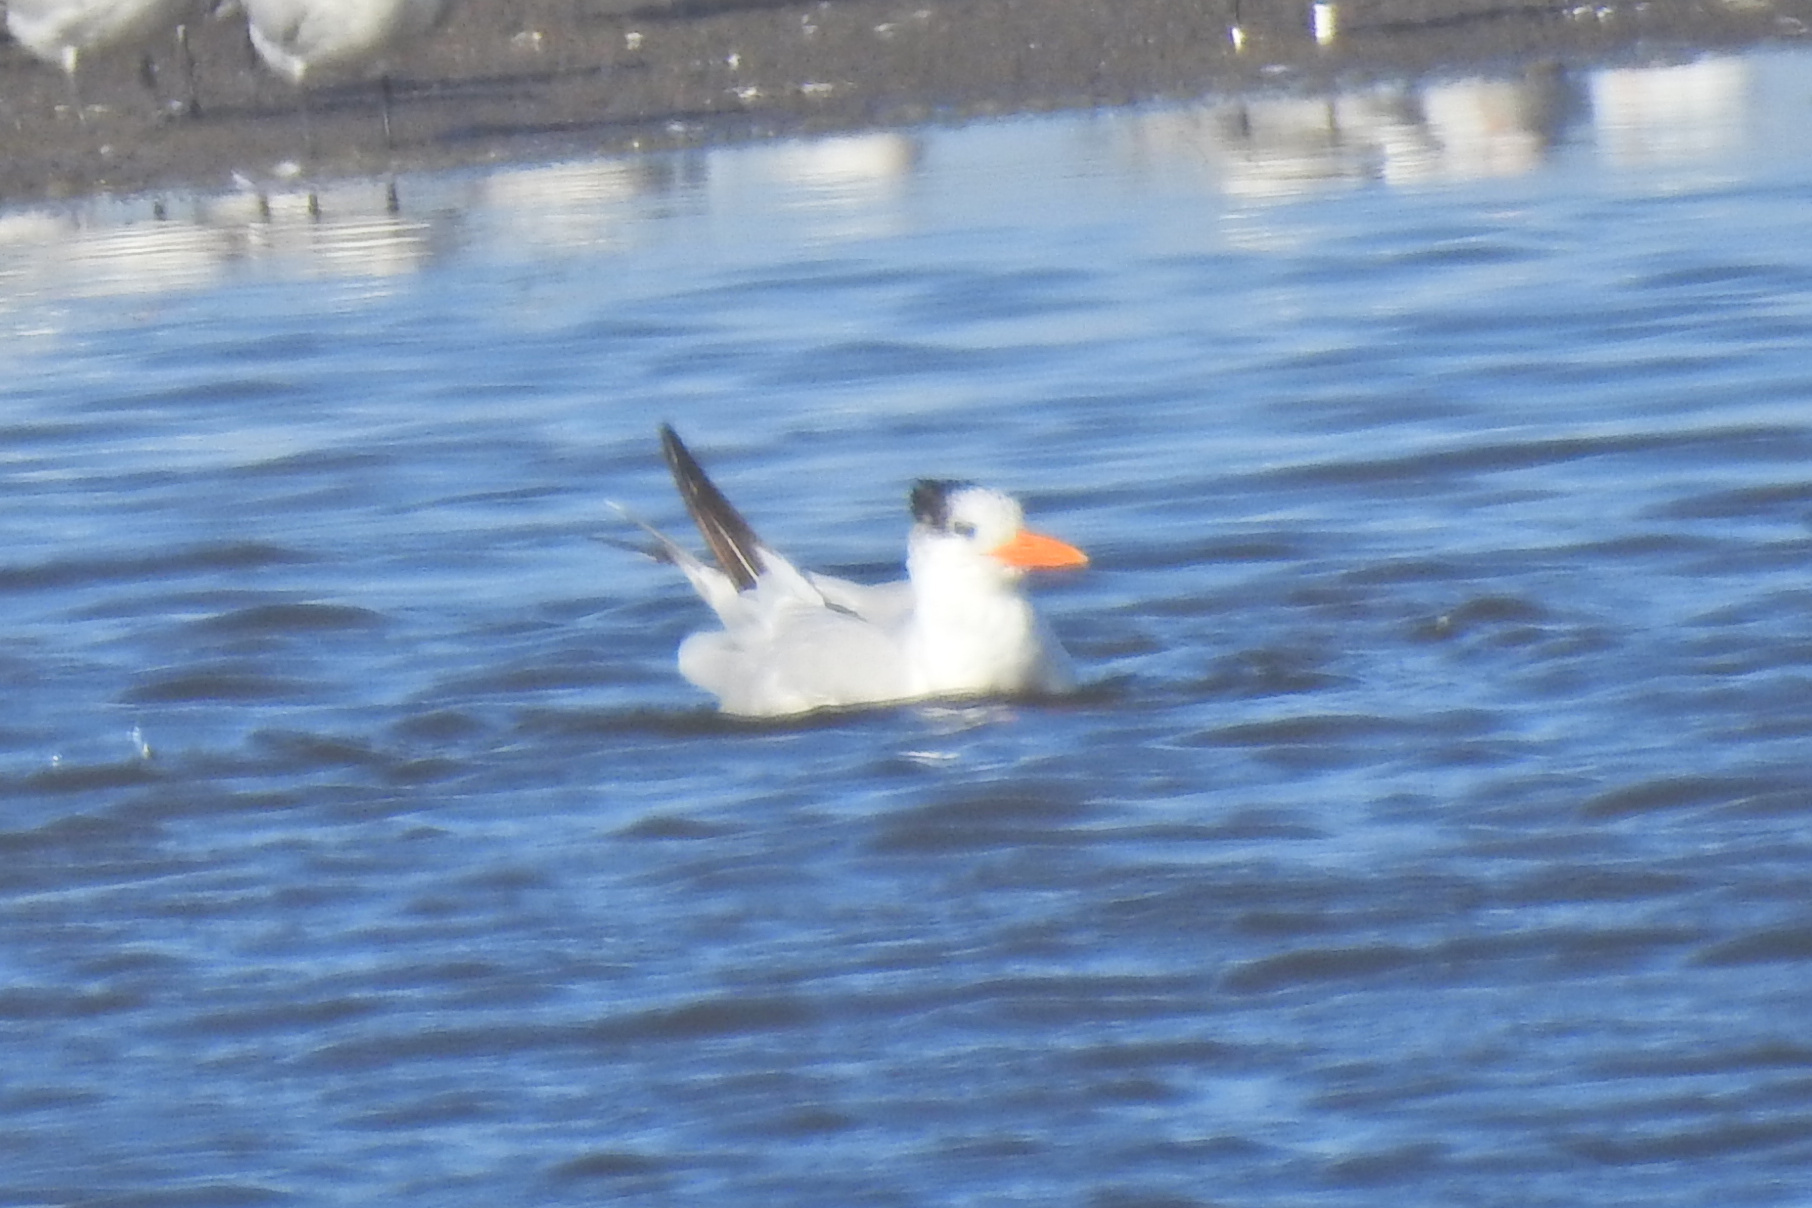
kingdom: Animalia
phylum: Chordata
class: Aves
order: Charadriiformes
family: Laridae
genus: Thalasseus
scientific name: Thalasseus maximus
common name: Royal tern
